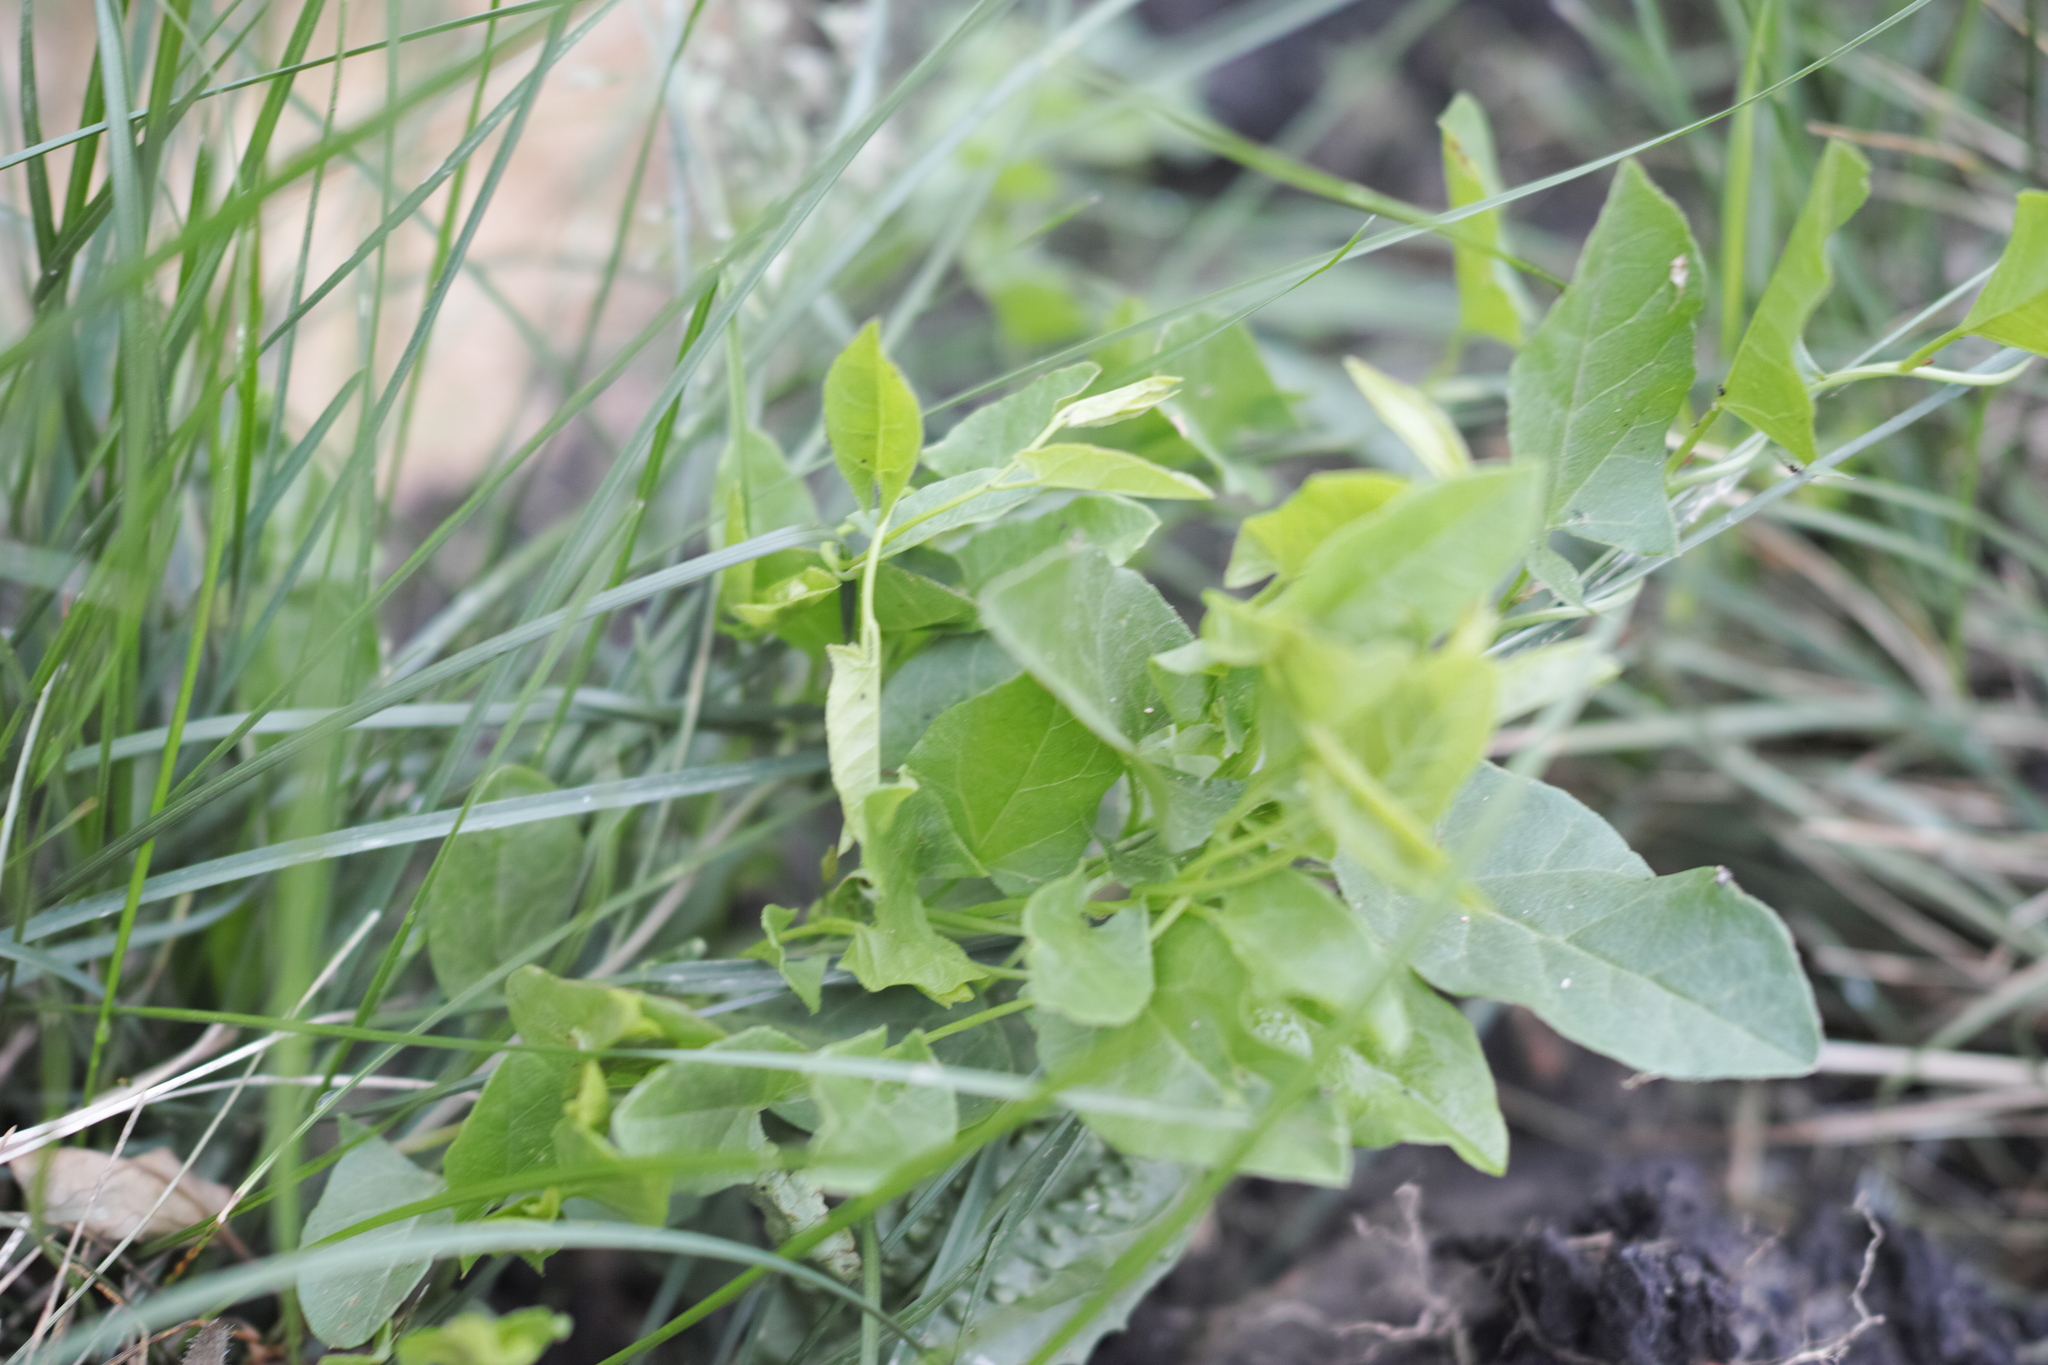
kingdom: Plantae
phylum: Tracheophyta
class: Magnoliopsida
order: Solanales
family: Convolvulaceae
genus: Convolvulus
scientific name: Convolvulus arvensis
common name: Field bindweed
